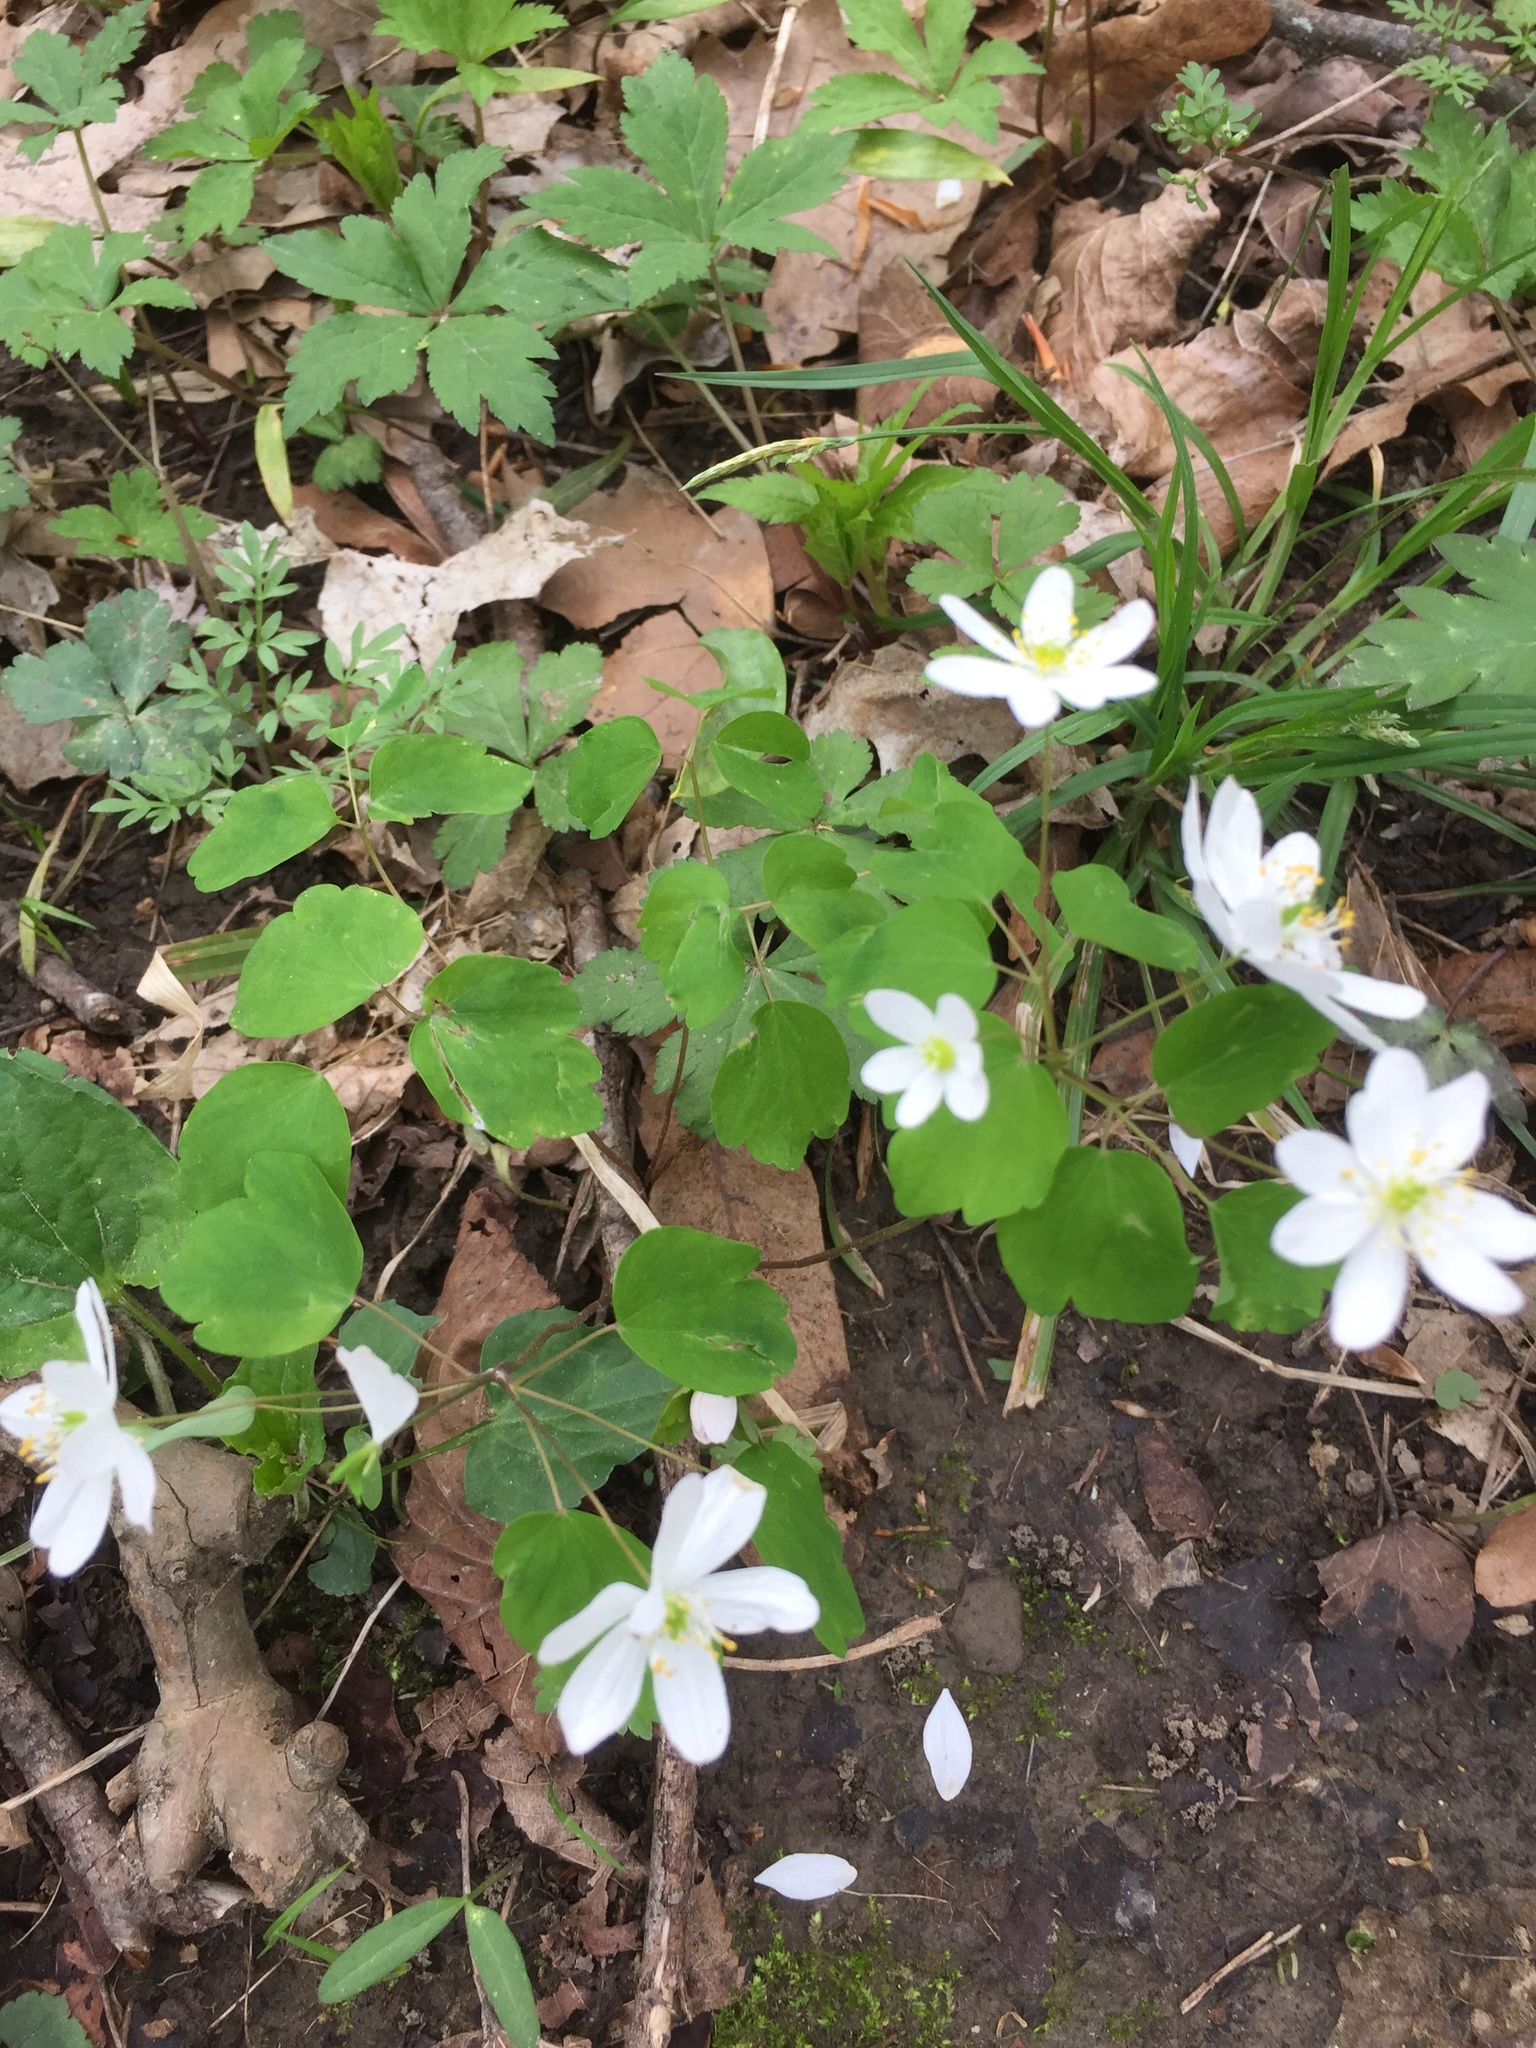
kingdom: Plantae
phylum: Tracheophyta
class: Magnoliopsida
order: Ranunculales
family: Ranunculaceae
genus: Thalictrum
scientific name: Thalictrum thalictroides
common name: Rue-anemone
